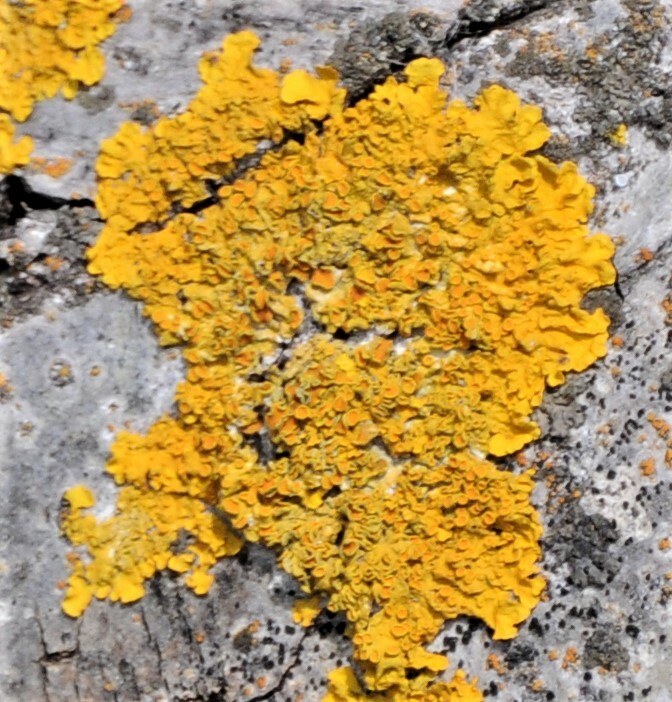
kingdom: Fungi
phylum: Ascomycota
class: Lecanoromycetes
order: Teloschistales
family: Teloschistaceae
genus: Xanthoria
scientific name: Xanthoria parietina
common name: Common orange lichen
